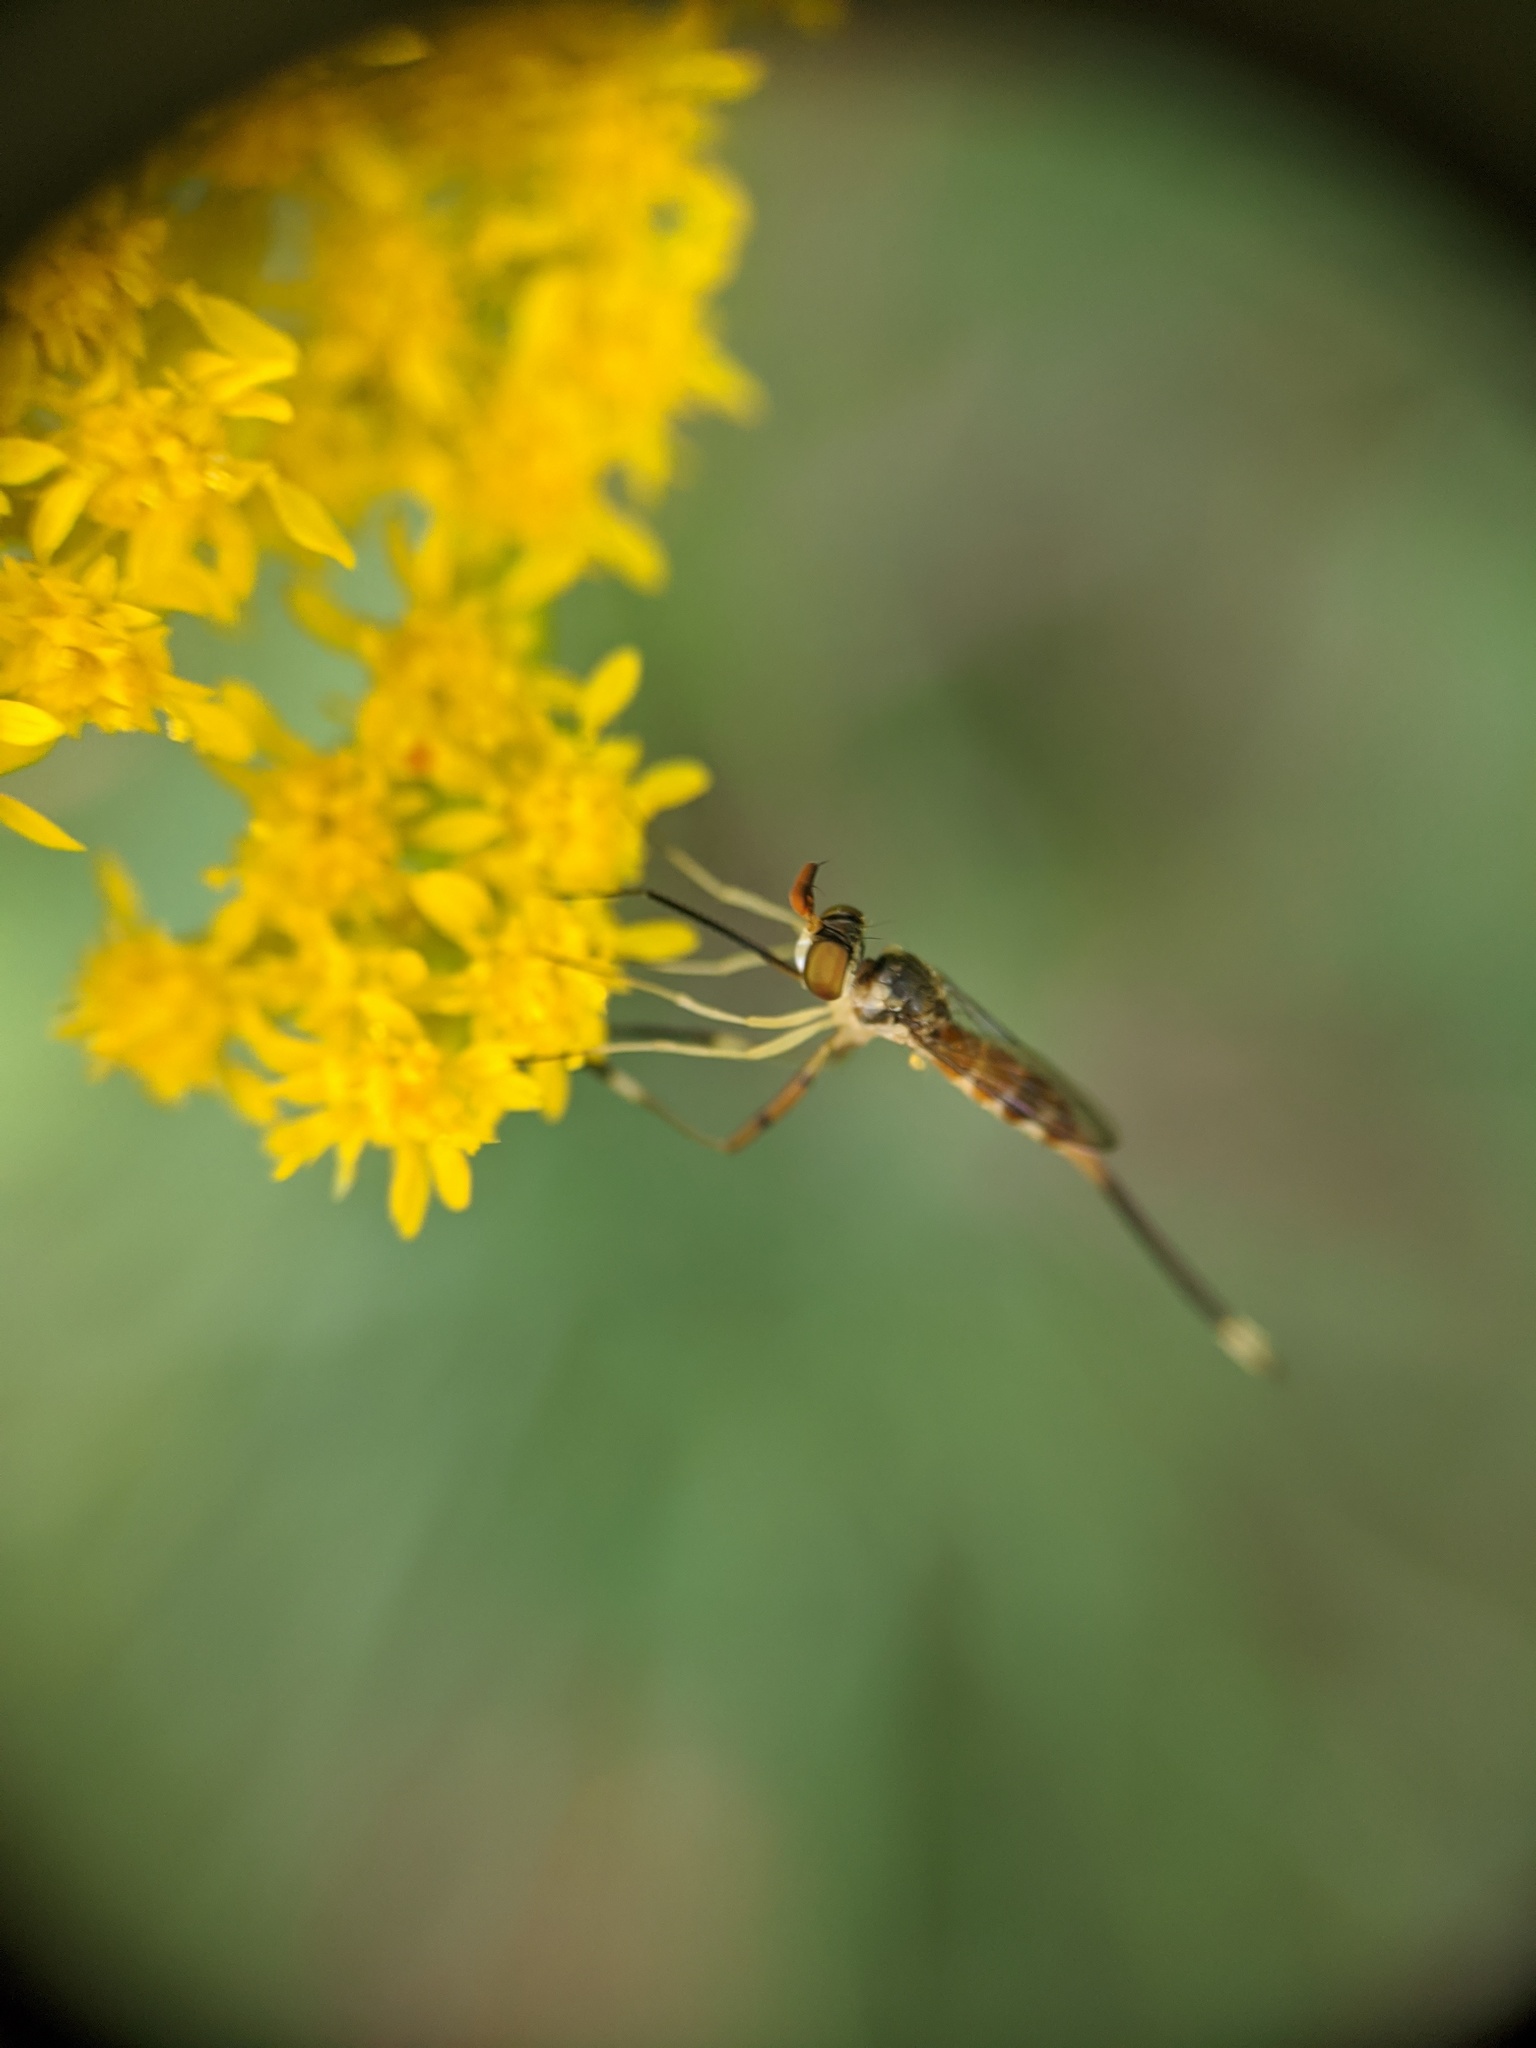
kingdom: Animalia
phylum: Arthropoda
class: Insecta
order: Diptera
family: Conopidae
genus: Stylogaster
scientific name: Stylogaster neglecta
